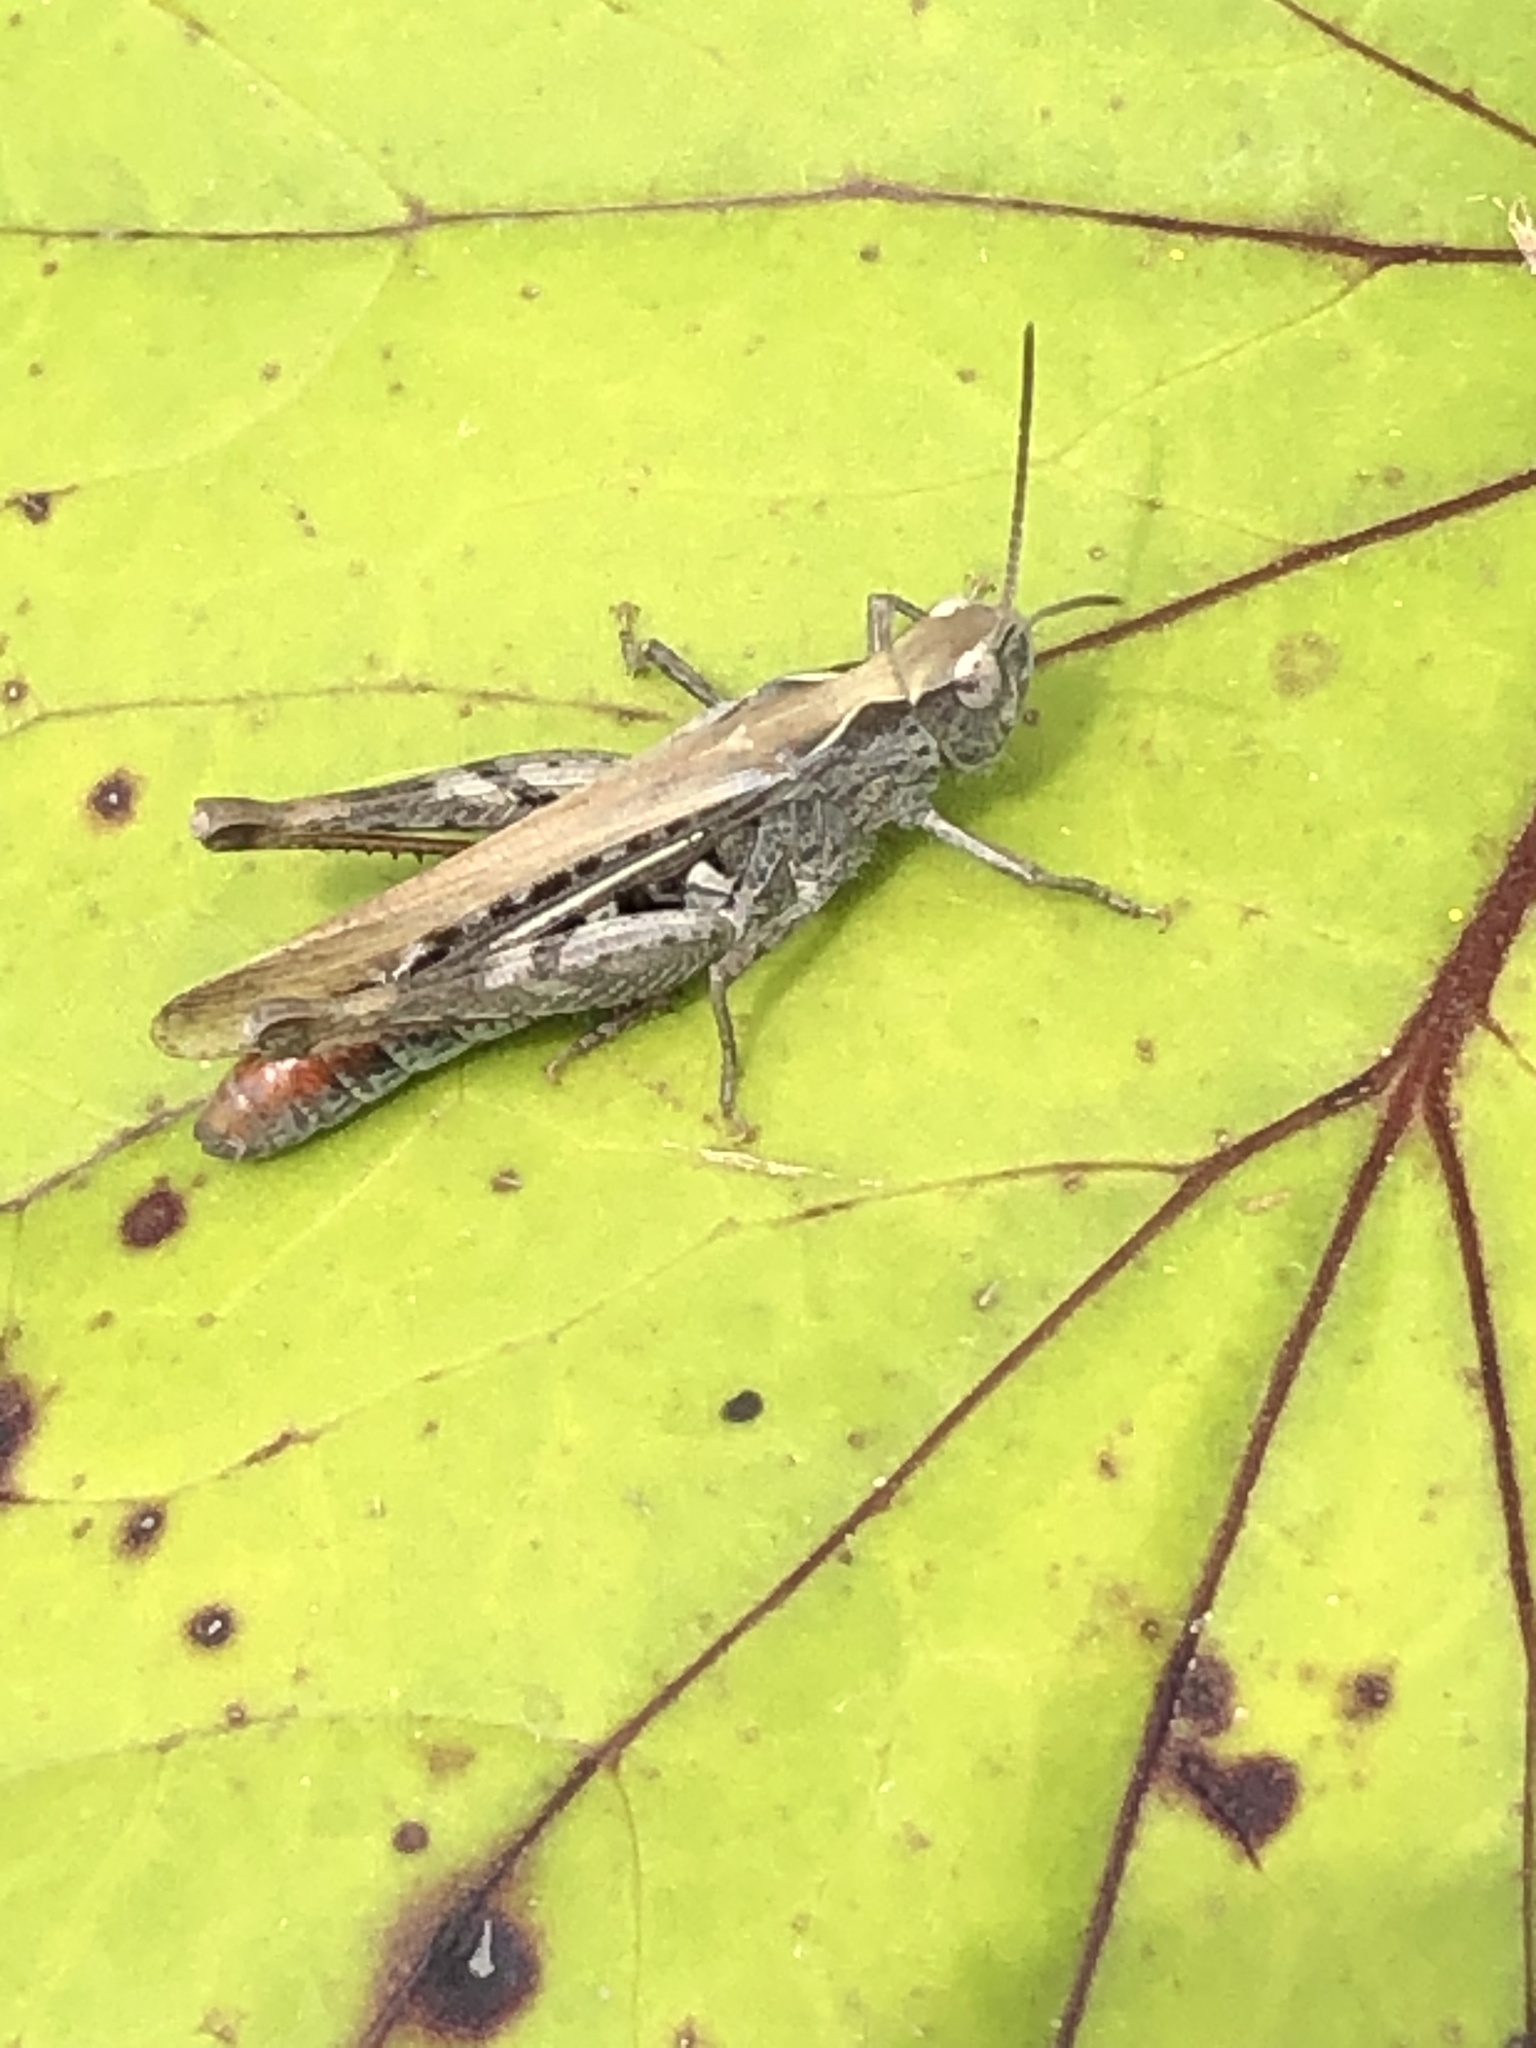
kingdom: Animalia
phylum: Arthropoda
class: Insecta
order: Orthoptera
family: Acrididae
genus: Chorthippus
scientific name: Chorthippus brunneus
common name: Field grasshopper
